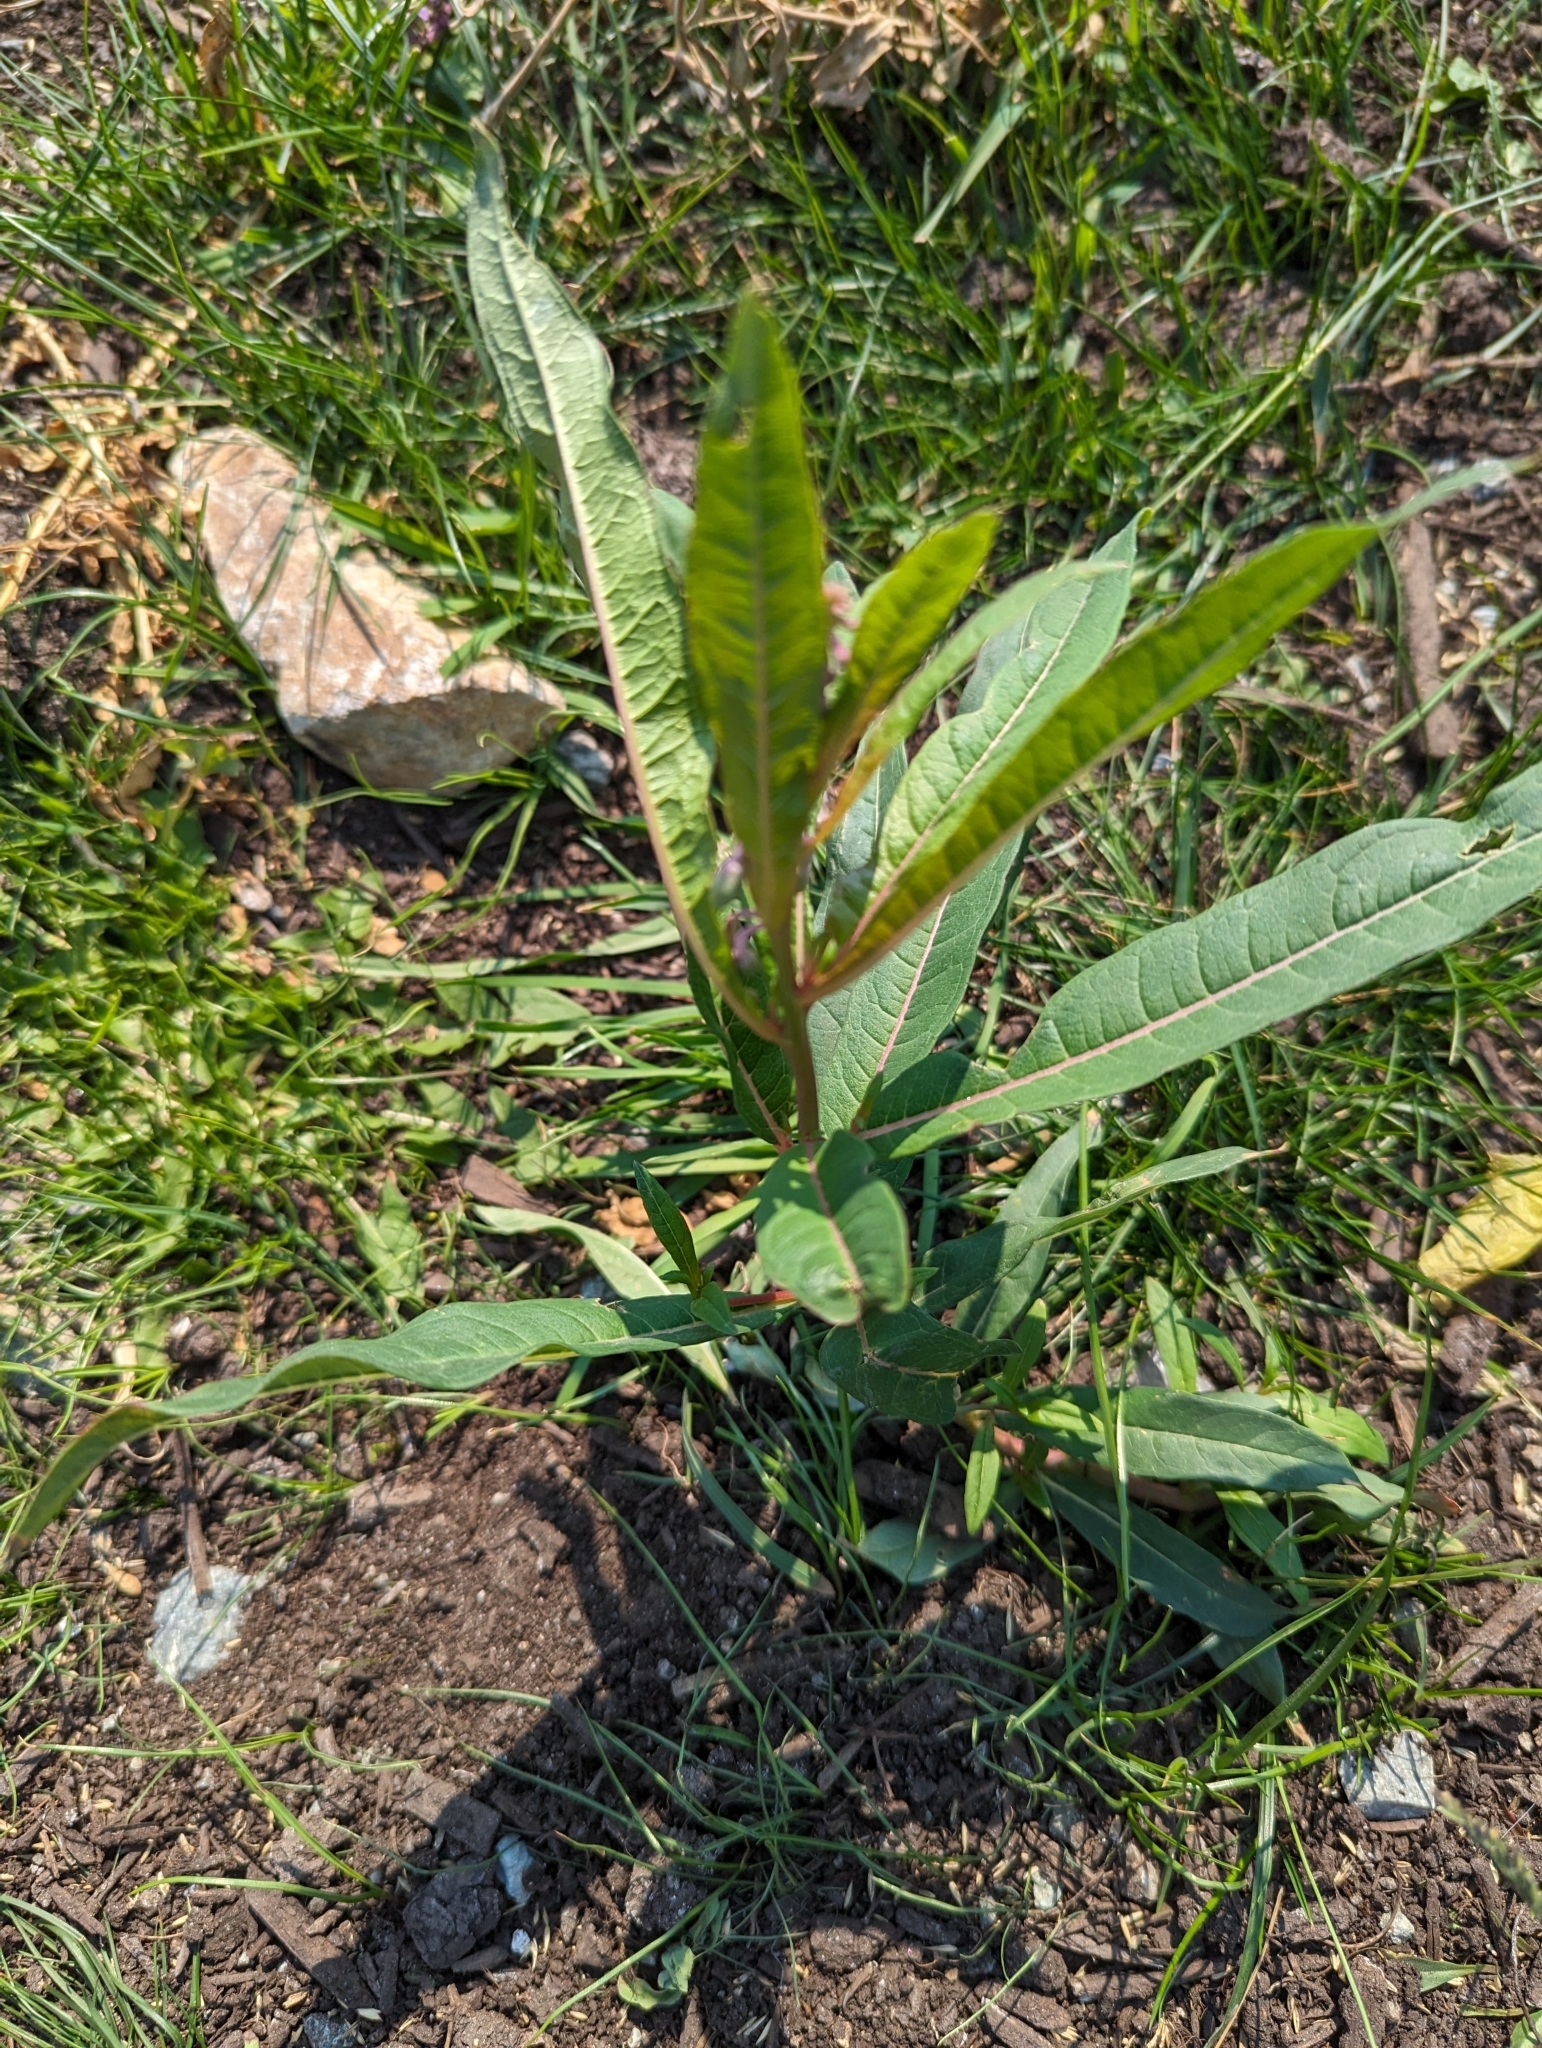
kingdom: Plantae
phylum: Tracheophyta
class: Magnoliopsida
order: Myrtales
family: Onagraceae
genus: Chamaenerion
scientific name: Chamaenerion angustifolium
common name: Fireweed
